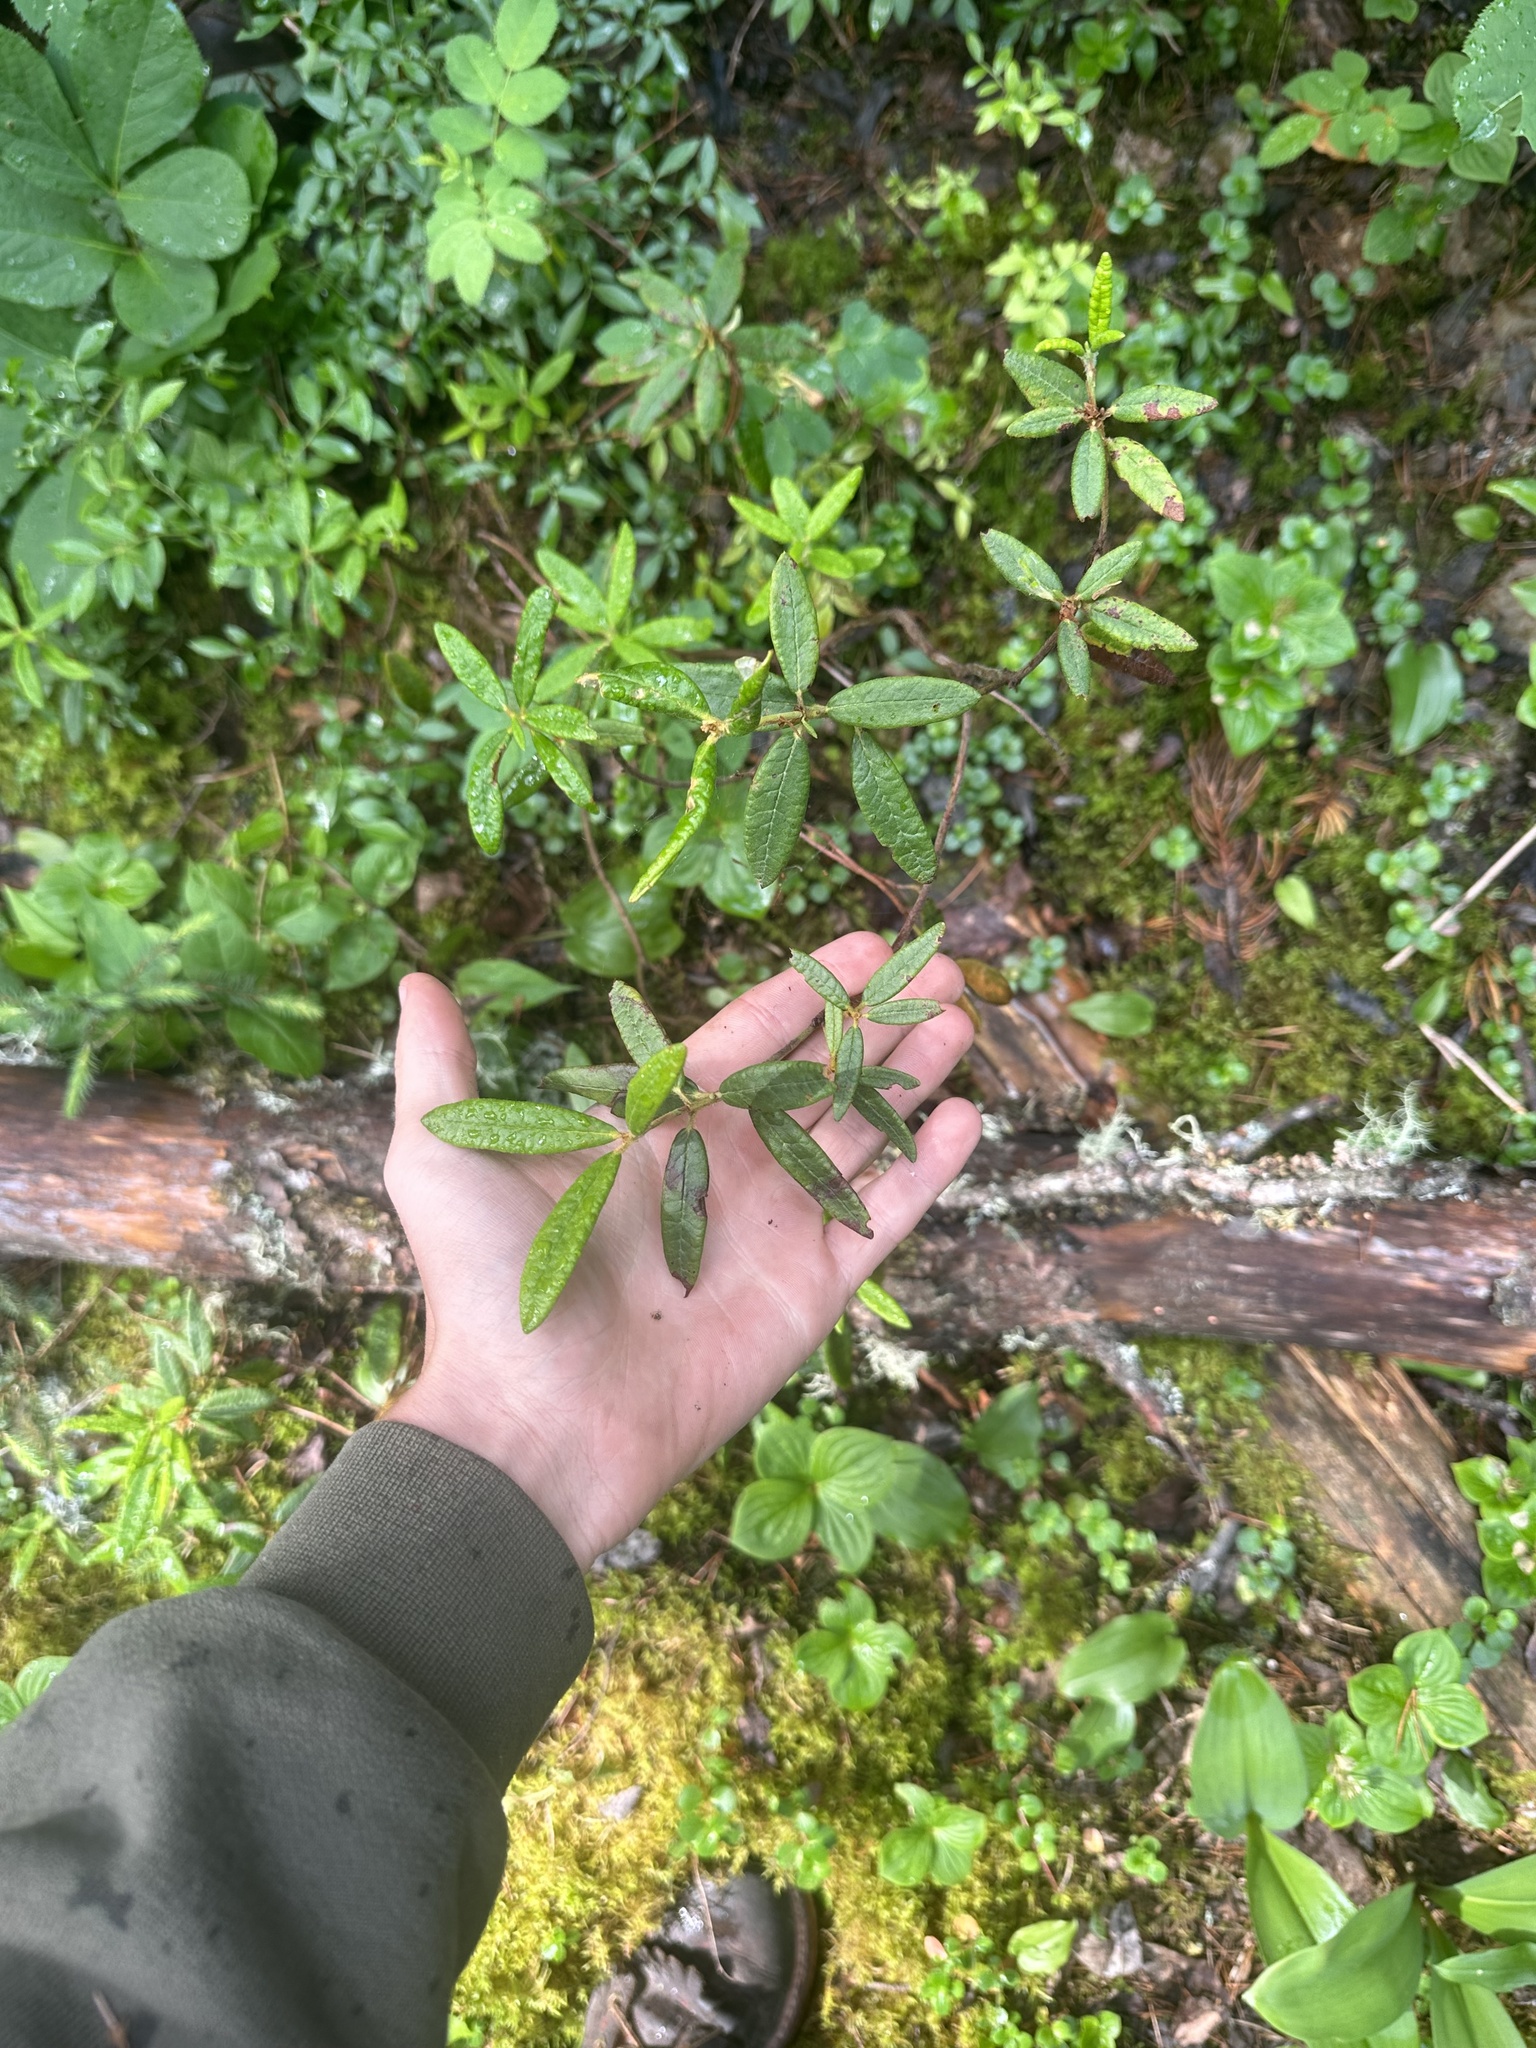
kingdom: Plantae
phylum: Tracheophyta
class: Magnoliopsida
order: Ericales
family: Ericaceae
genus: Rhododendron
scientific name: Rhododendron groenlandicum
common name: Bog labrador tea
